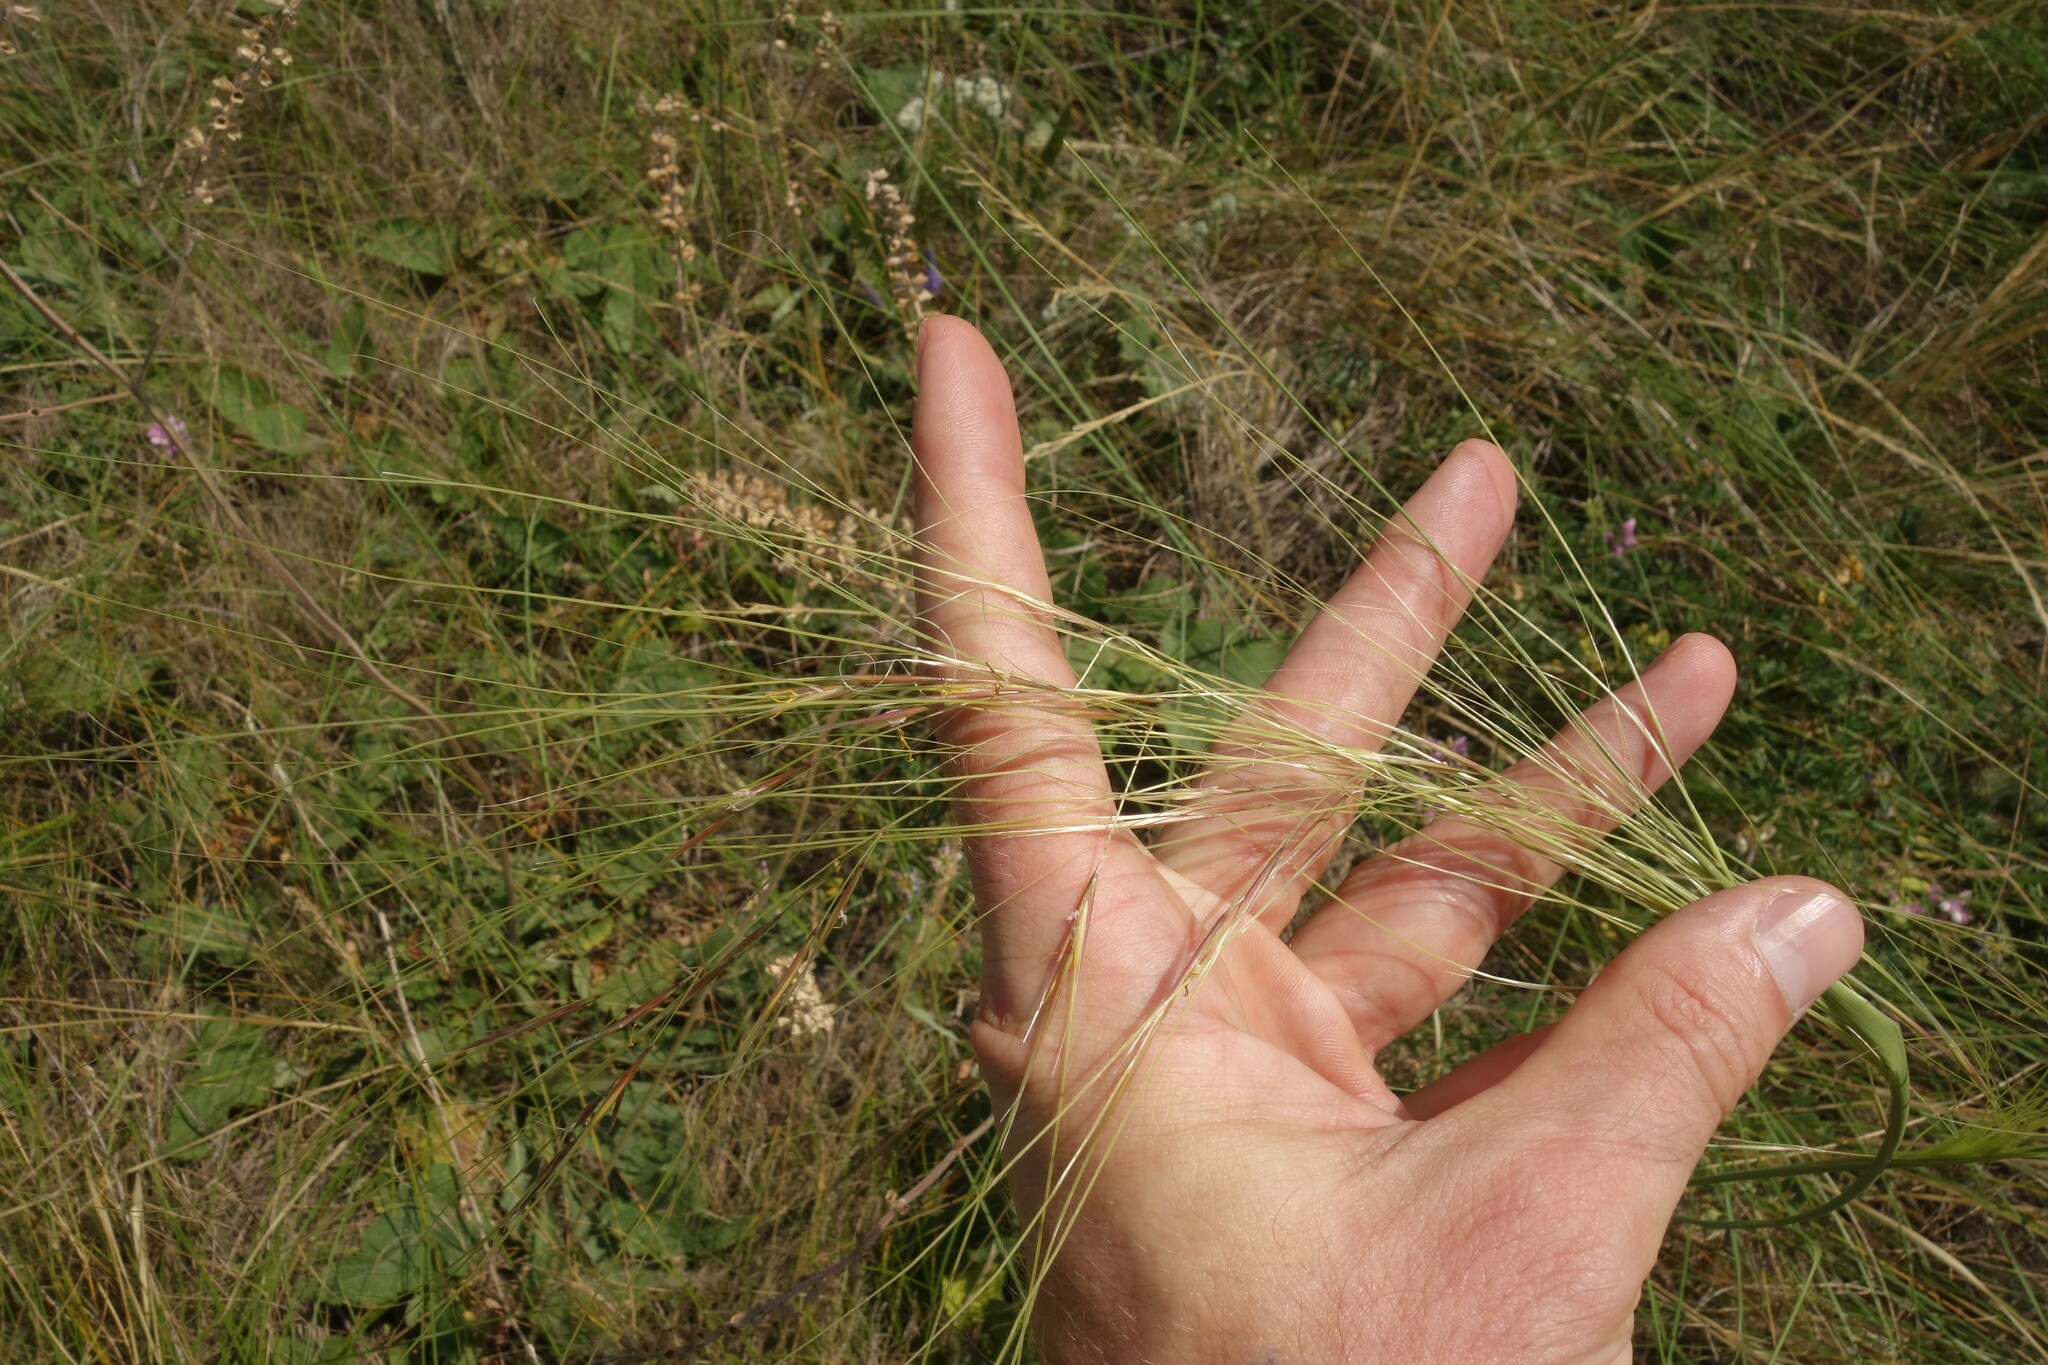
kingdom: Plantae
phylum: Tracheophyta
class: Liliopsida
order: Poales
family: Poaceae
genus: Stipa
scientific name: Stipa capillata
